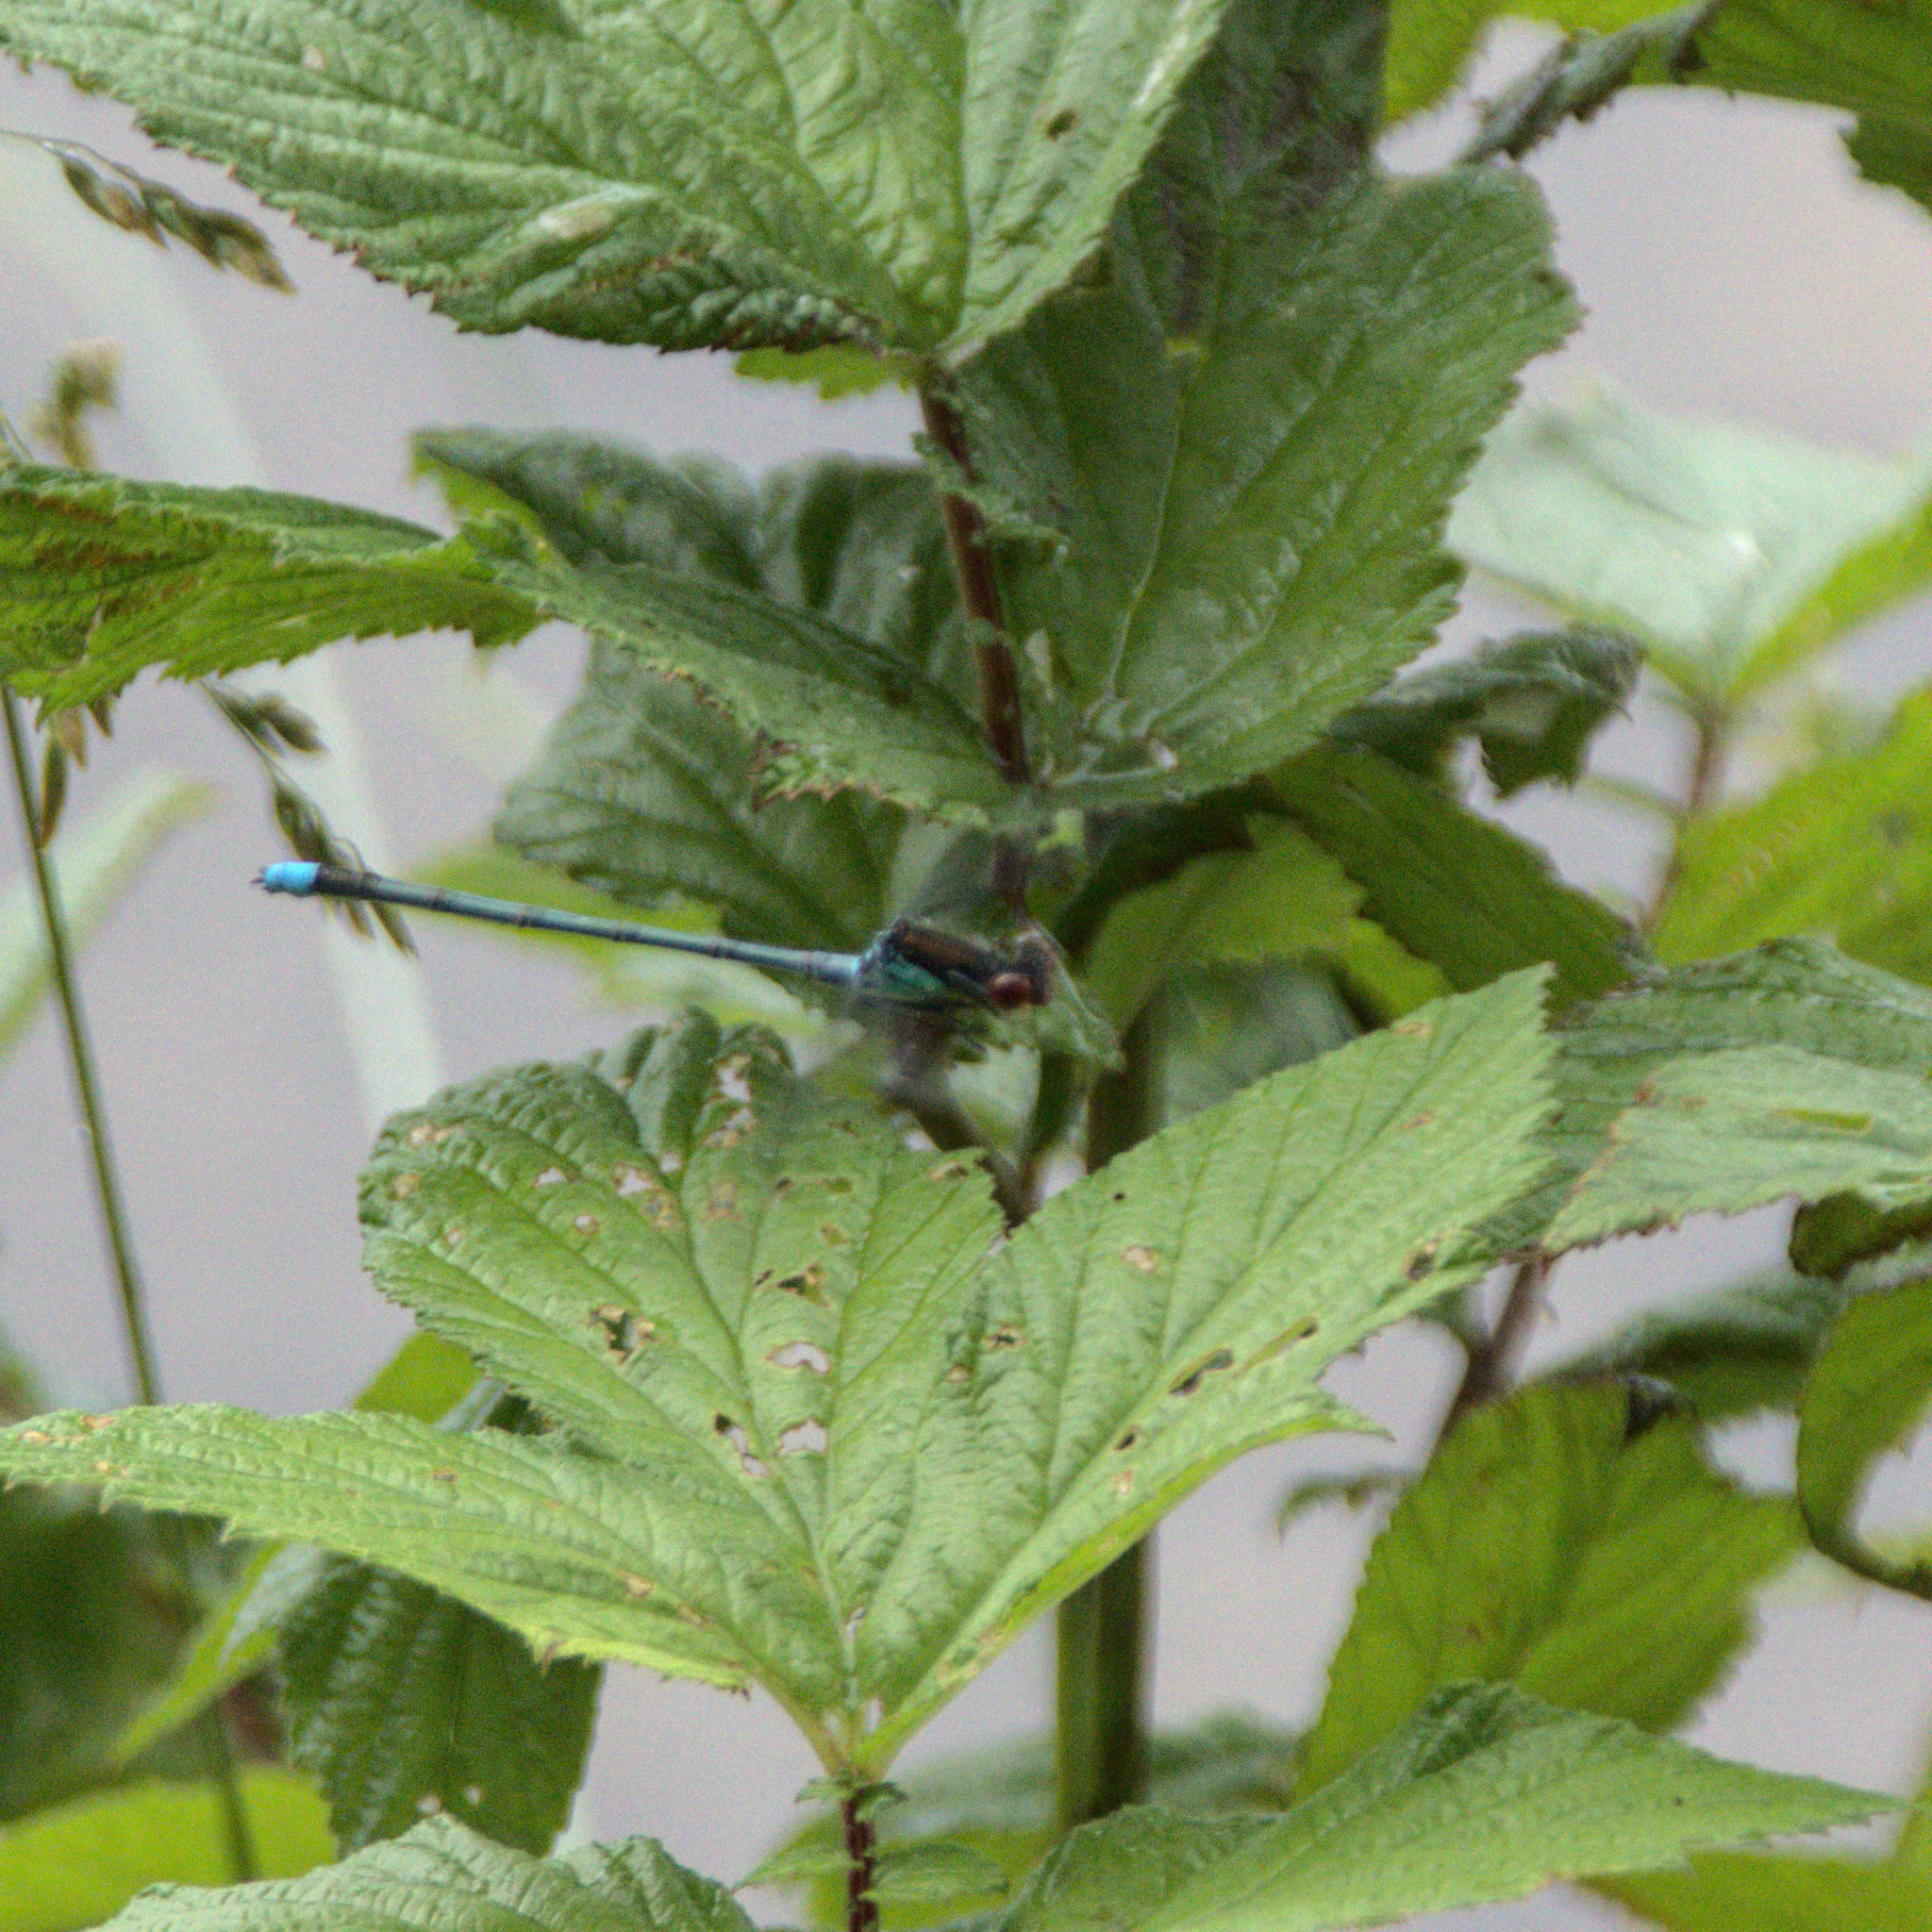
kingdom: Animalia
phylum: Arthropoda
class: Insecta
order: Odonata
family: Coenagrionidae
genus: Erythromma
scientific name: Erythromma najas
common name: Red-eyed damselfly
